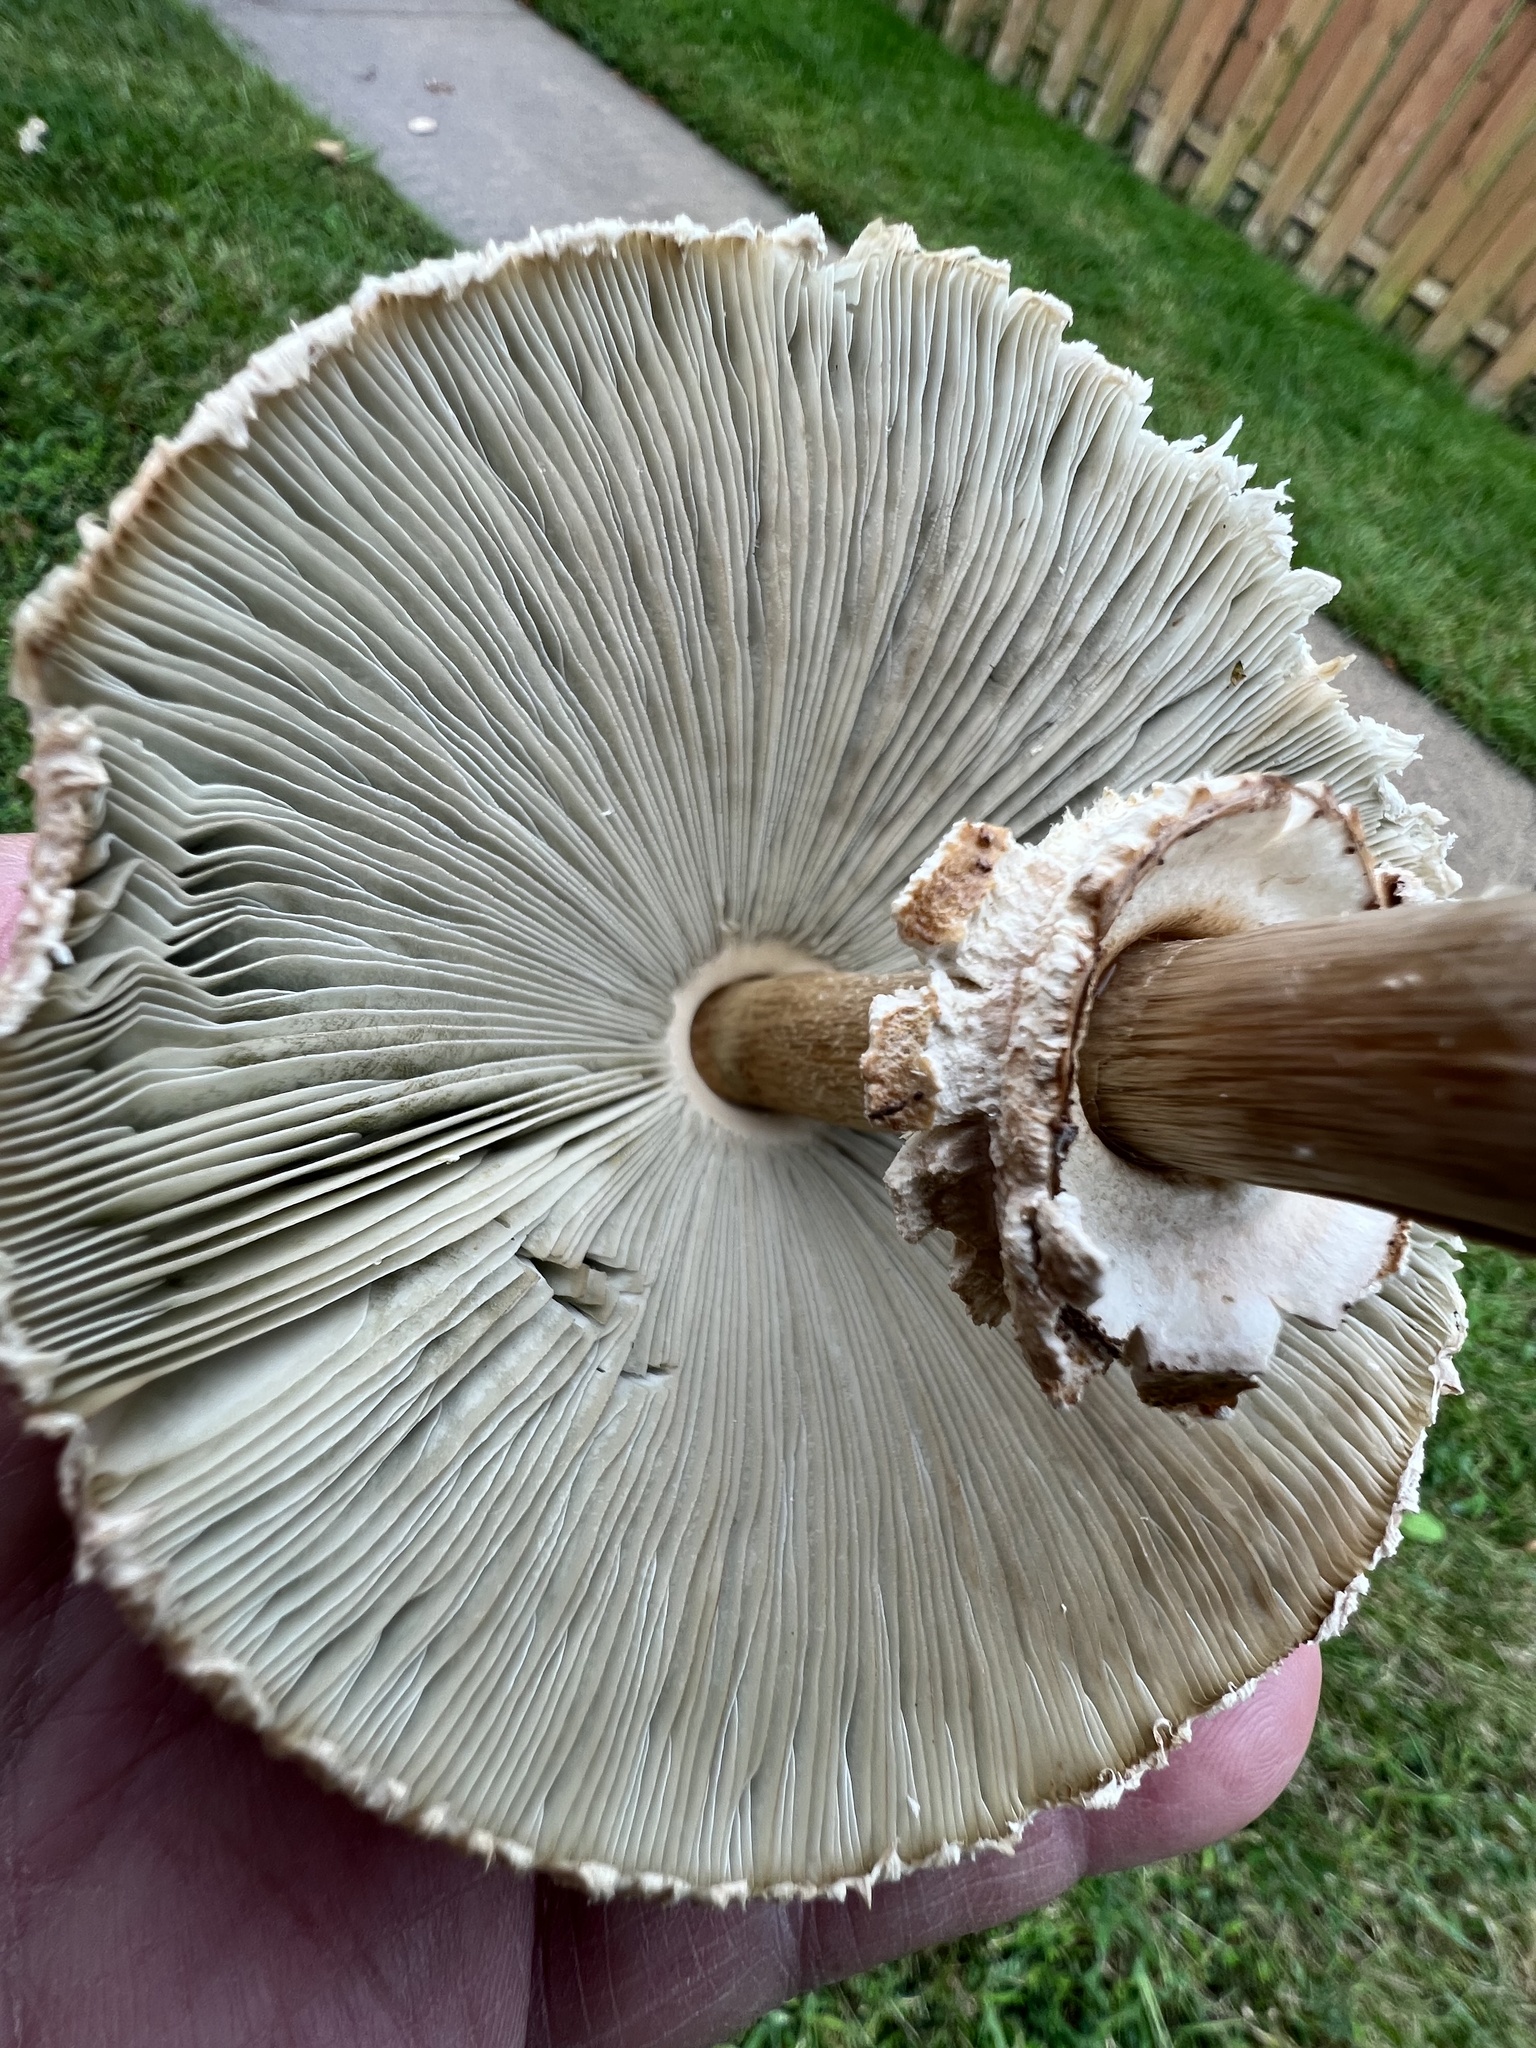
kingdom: Fungi
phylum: Basidiomycota
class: Agaricomycetes
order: Agaricales
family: Agaricaceae
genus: Chlorophyllum
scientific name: Chlorophyllum molybdites
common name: False parasol
